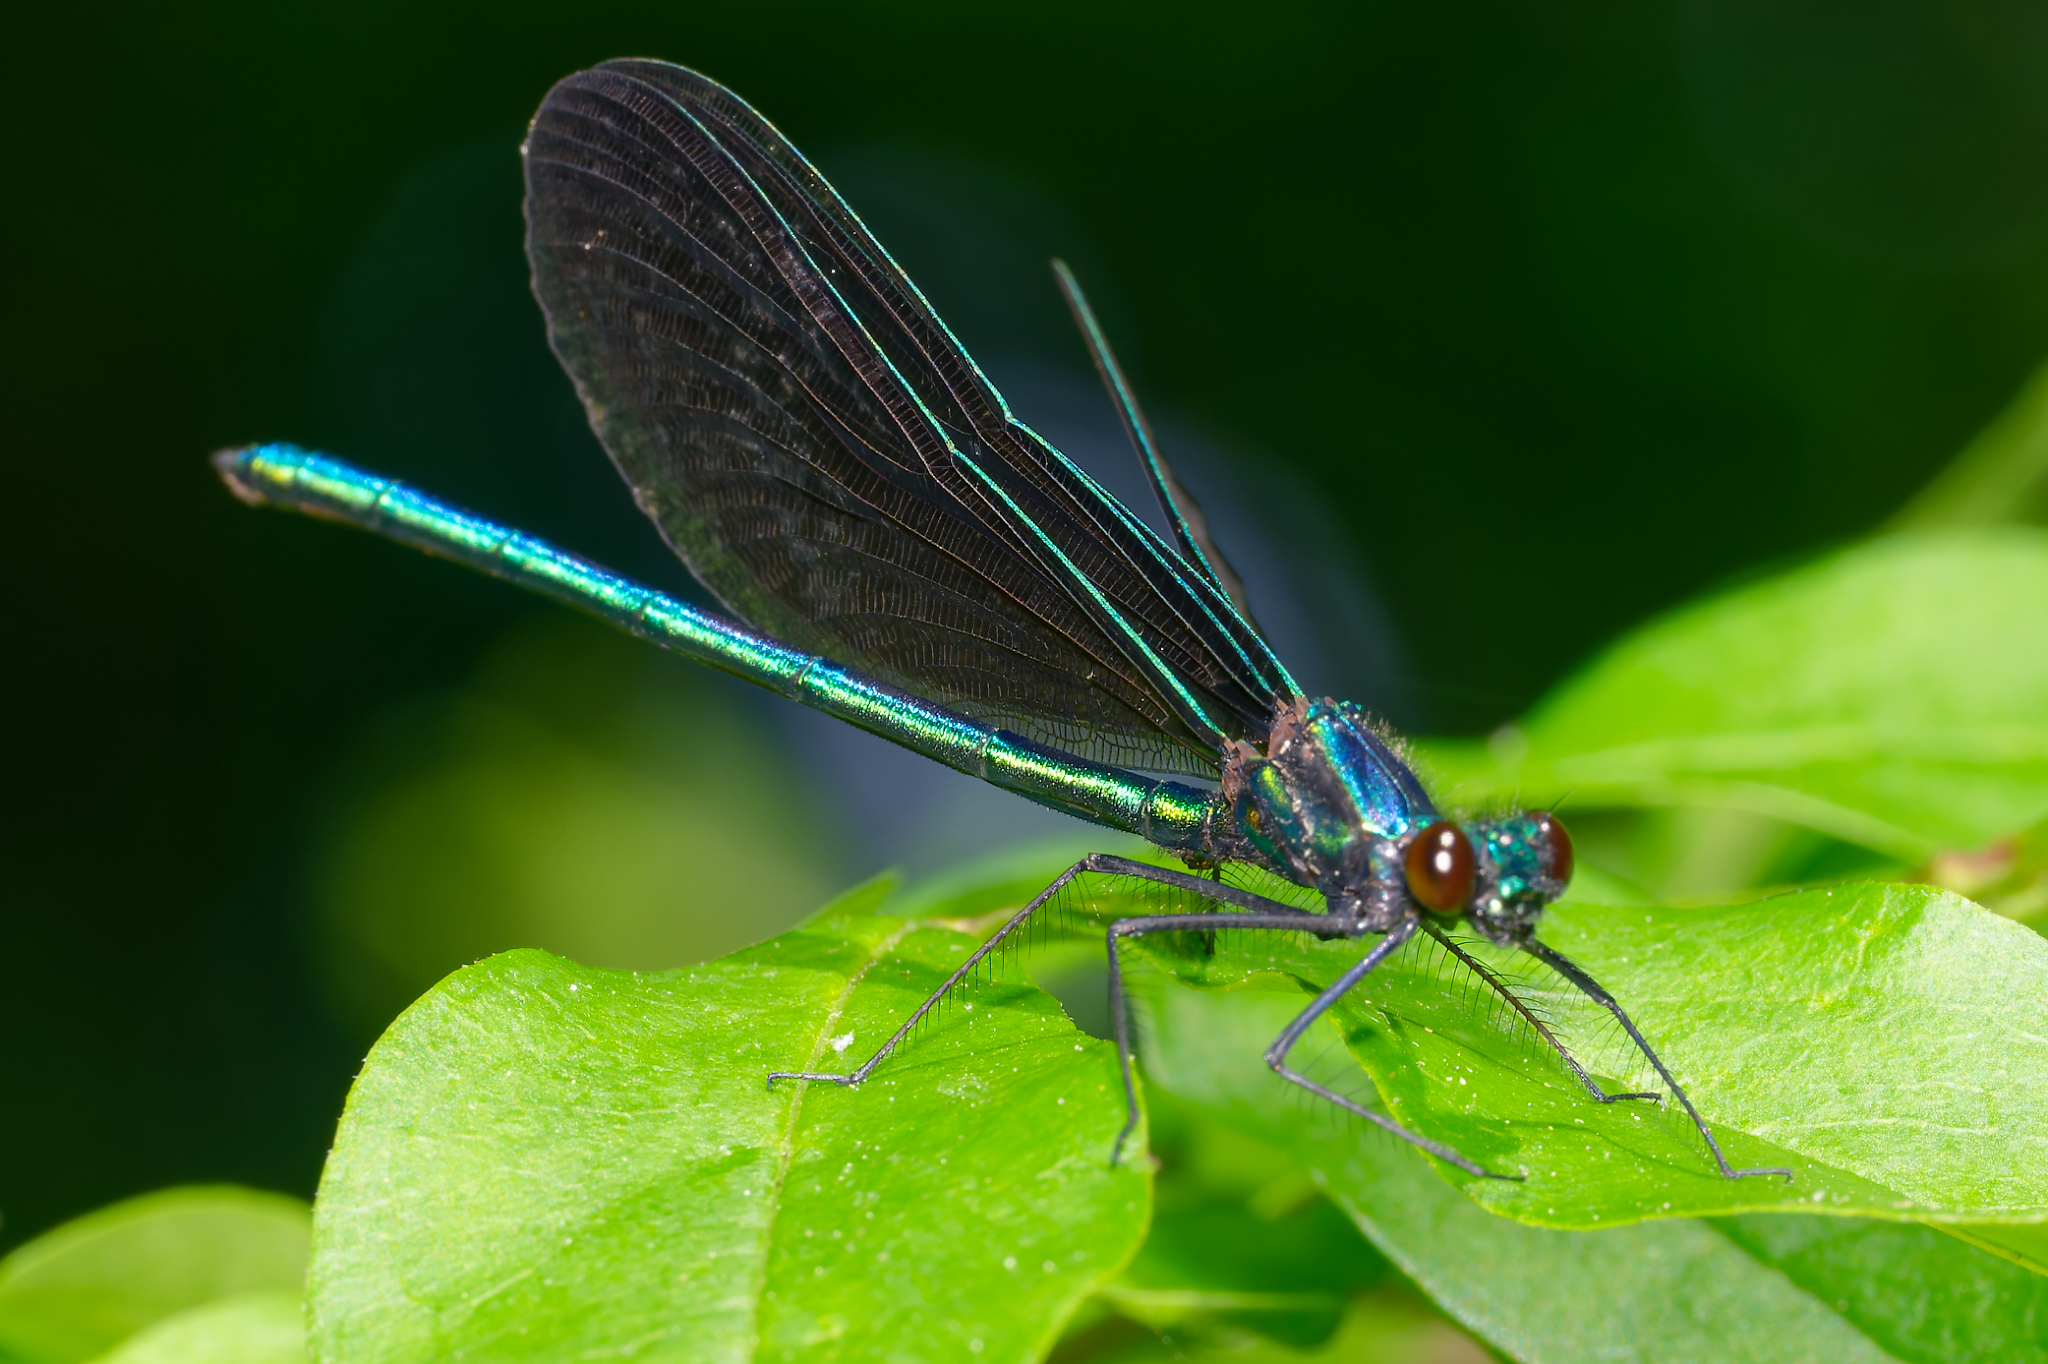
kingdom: Animalia
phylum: Arthropoda
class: Insecta
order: Odonata
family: Calopterygidae
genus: Calopteryx
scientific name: Calopteryx maculata
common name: Ebony jewelwing
